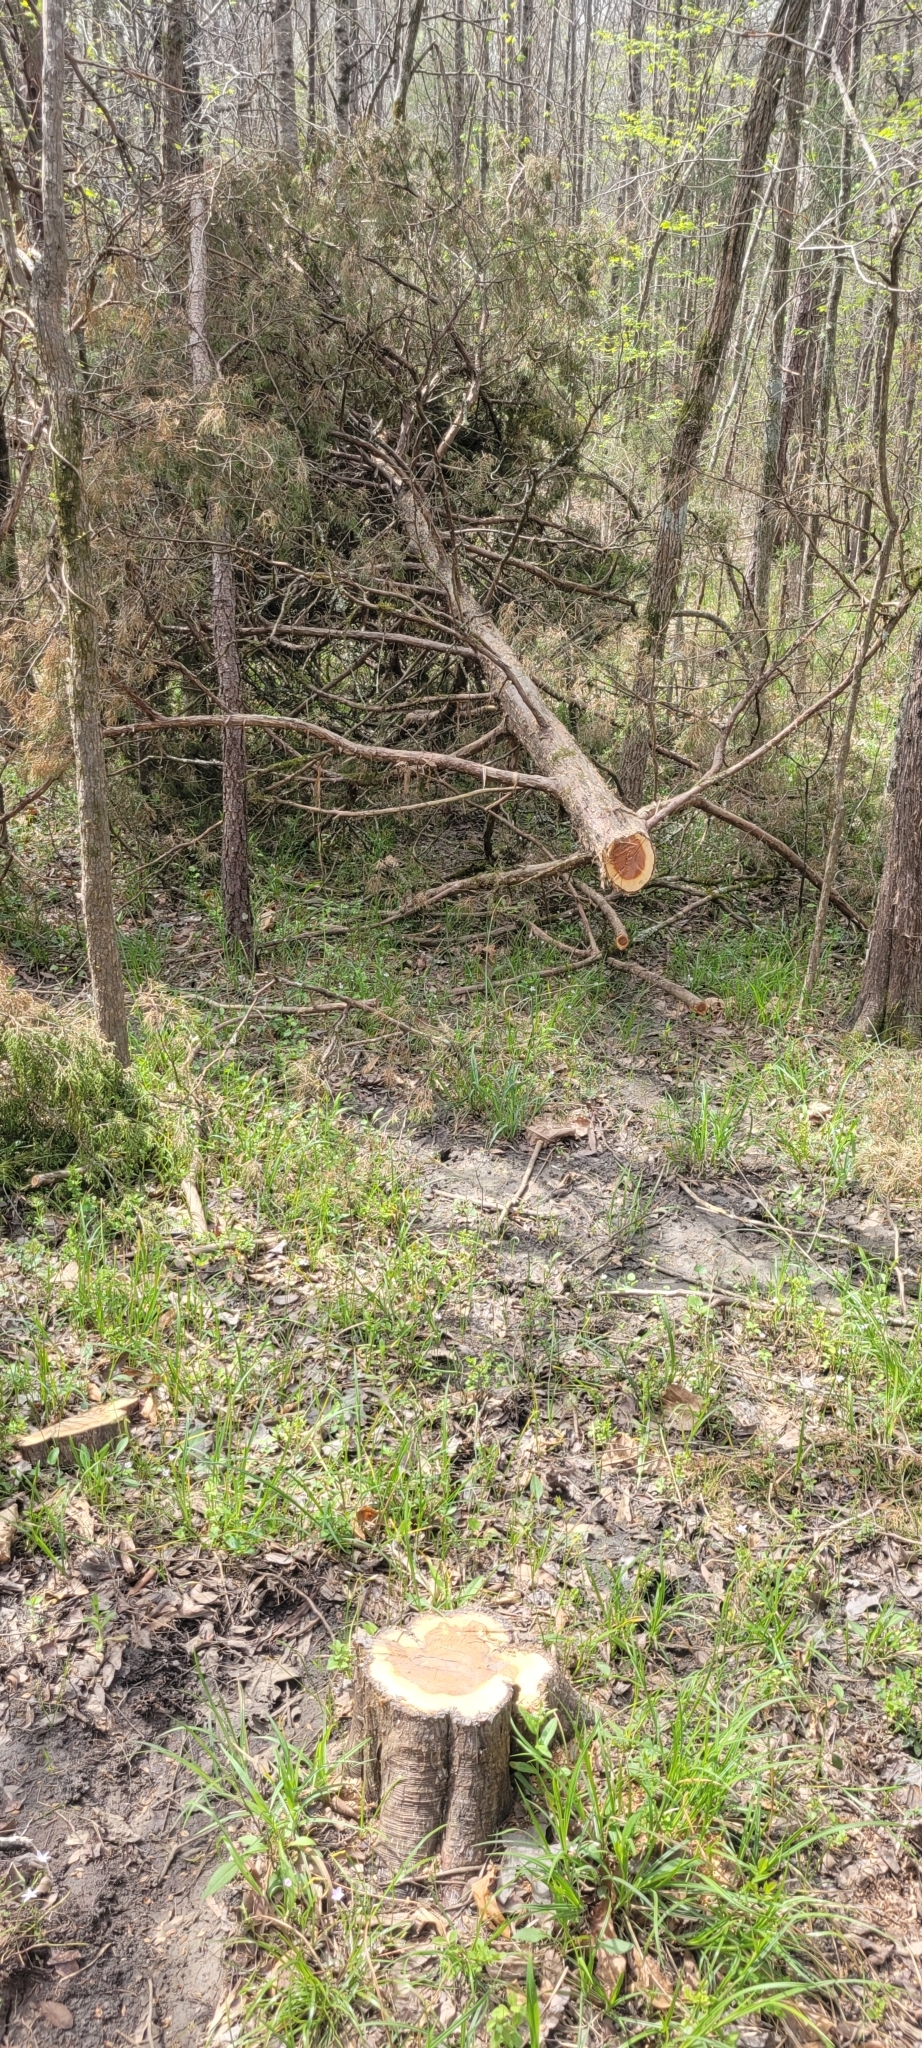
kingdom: Plantae
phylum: Tracheophyta
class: Pinopsida
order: Pinales
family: Cupressaceae
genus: Juniperus
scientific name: Juniperus virginiana
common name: Red juniper
